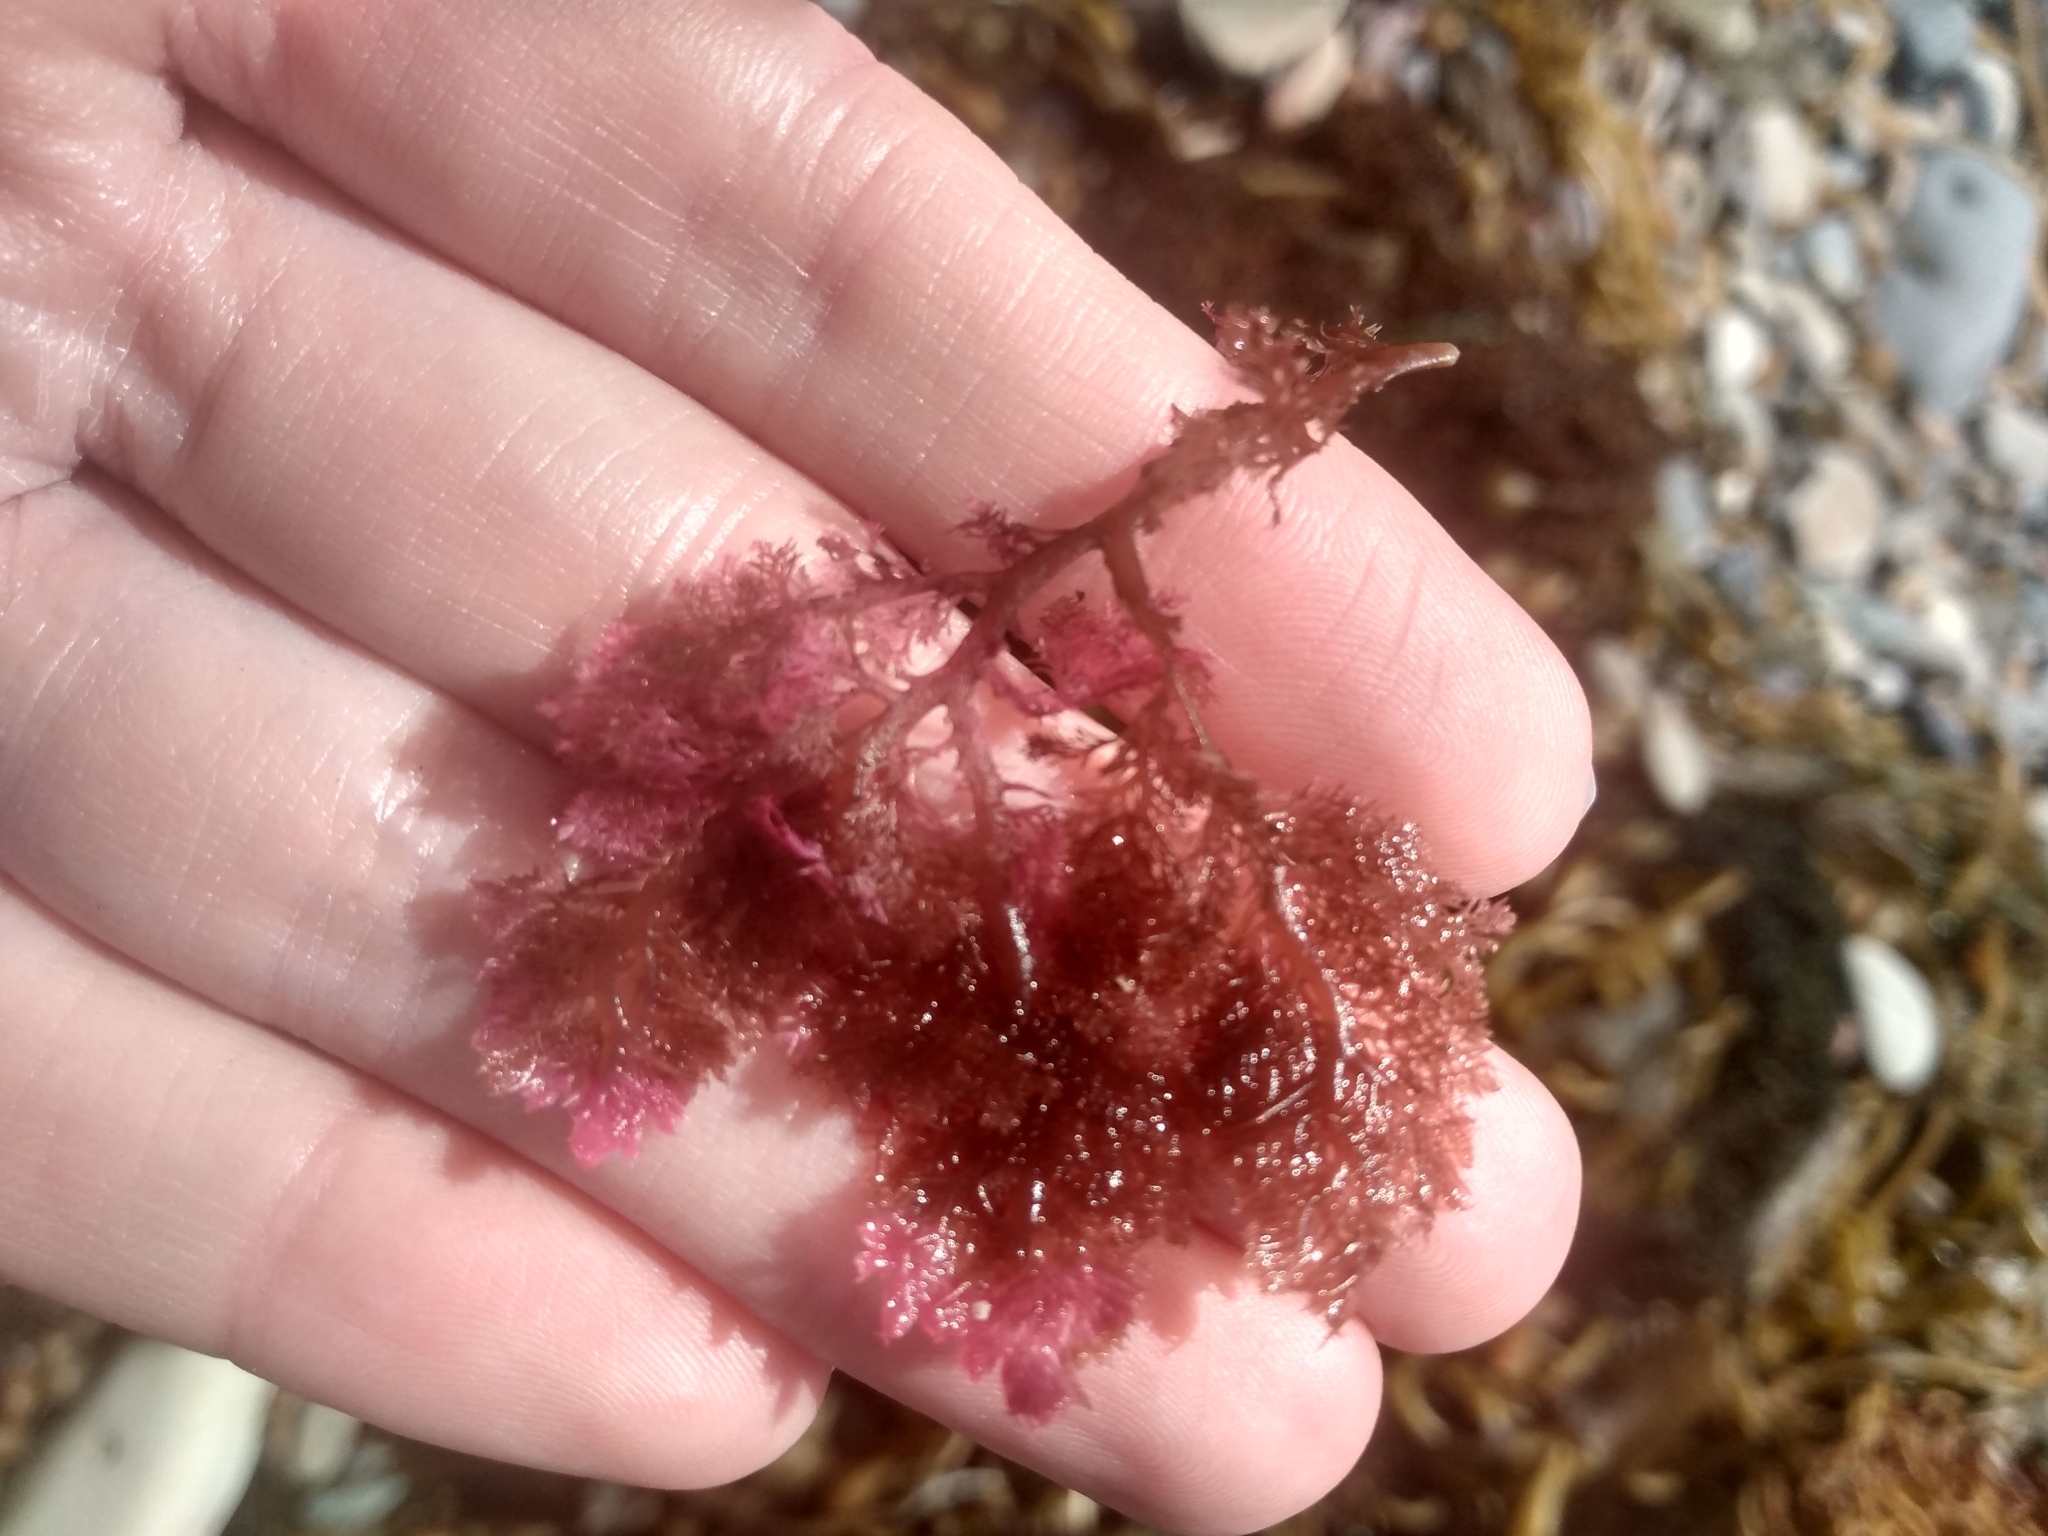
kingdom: Plantae
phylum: Rhodophyta
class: Florideophyceae
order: Plocamiales
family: Plocamiaceae
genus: Plocamium
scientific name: Plocamium cartilagineum
